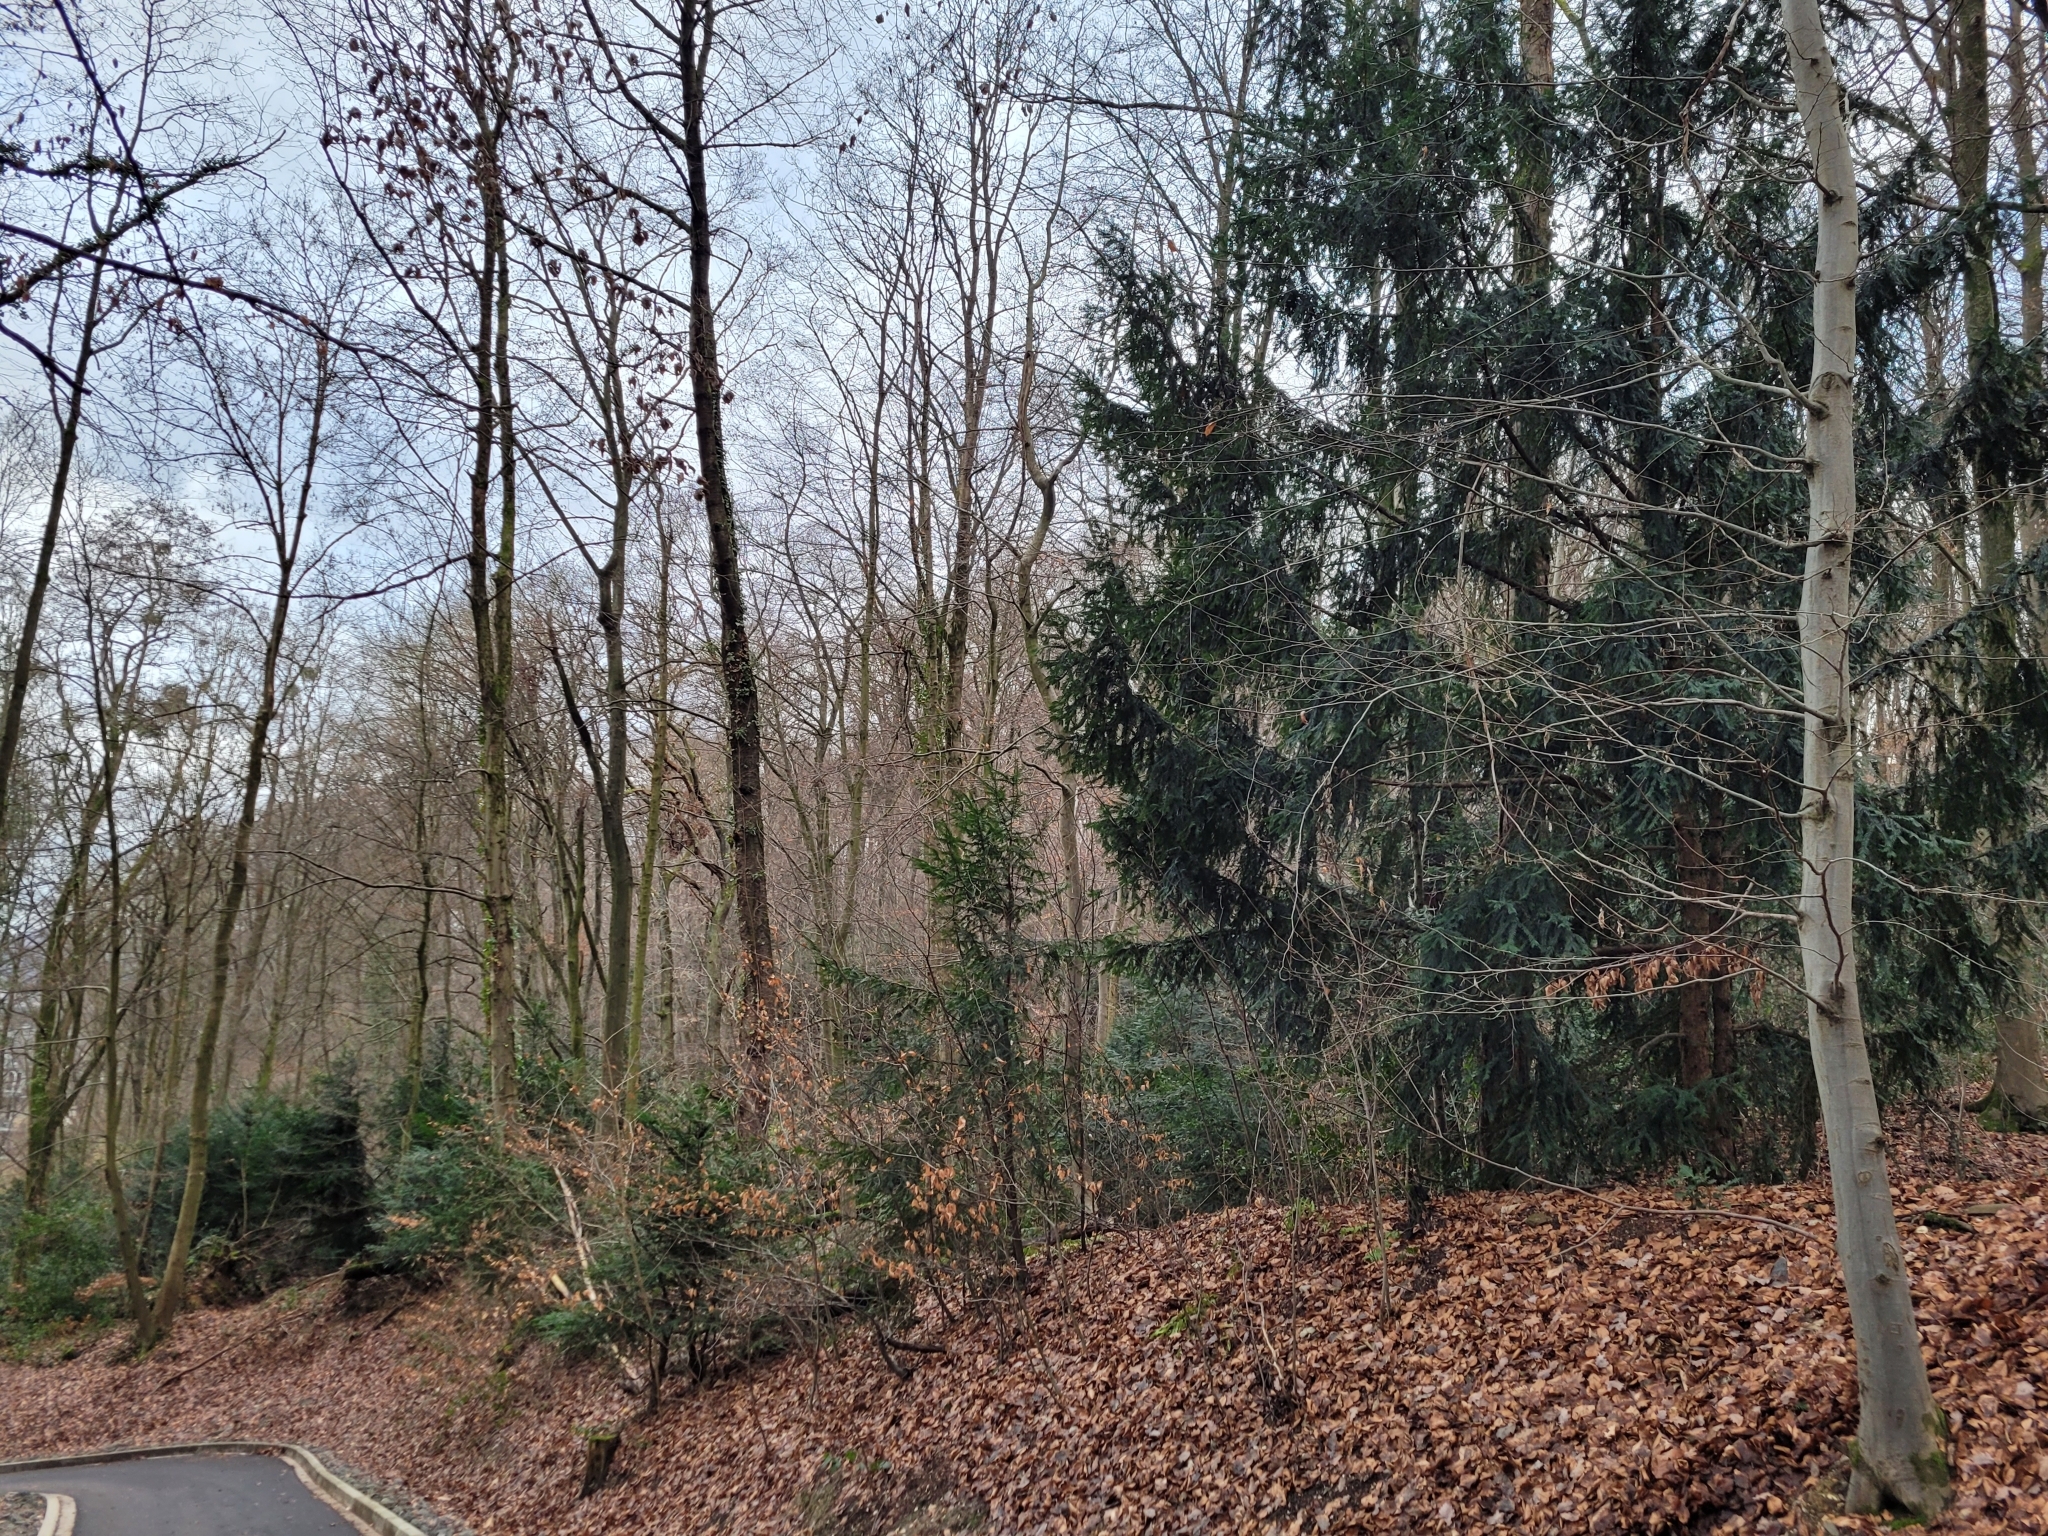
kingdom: Plantae
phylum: Tracheophyta
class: Pinopsida
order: Pinales
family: Taxaceae
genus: Taxus
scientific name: Taxus baccata
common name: Yew
